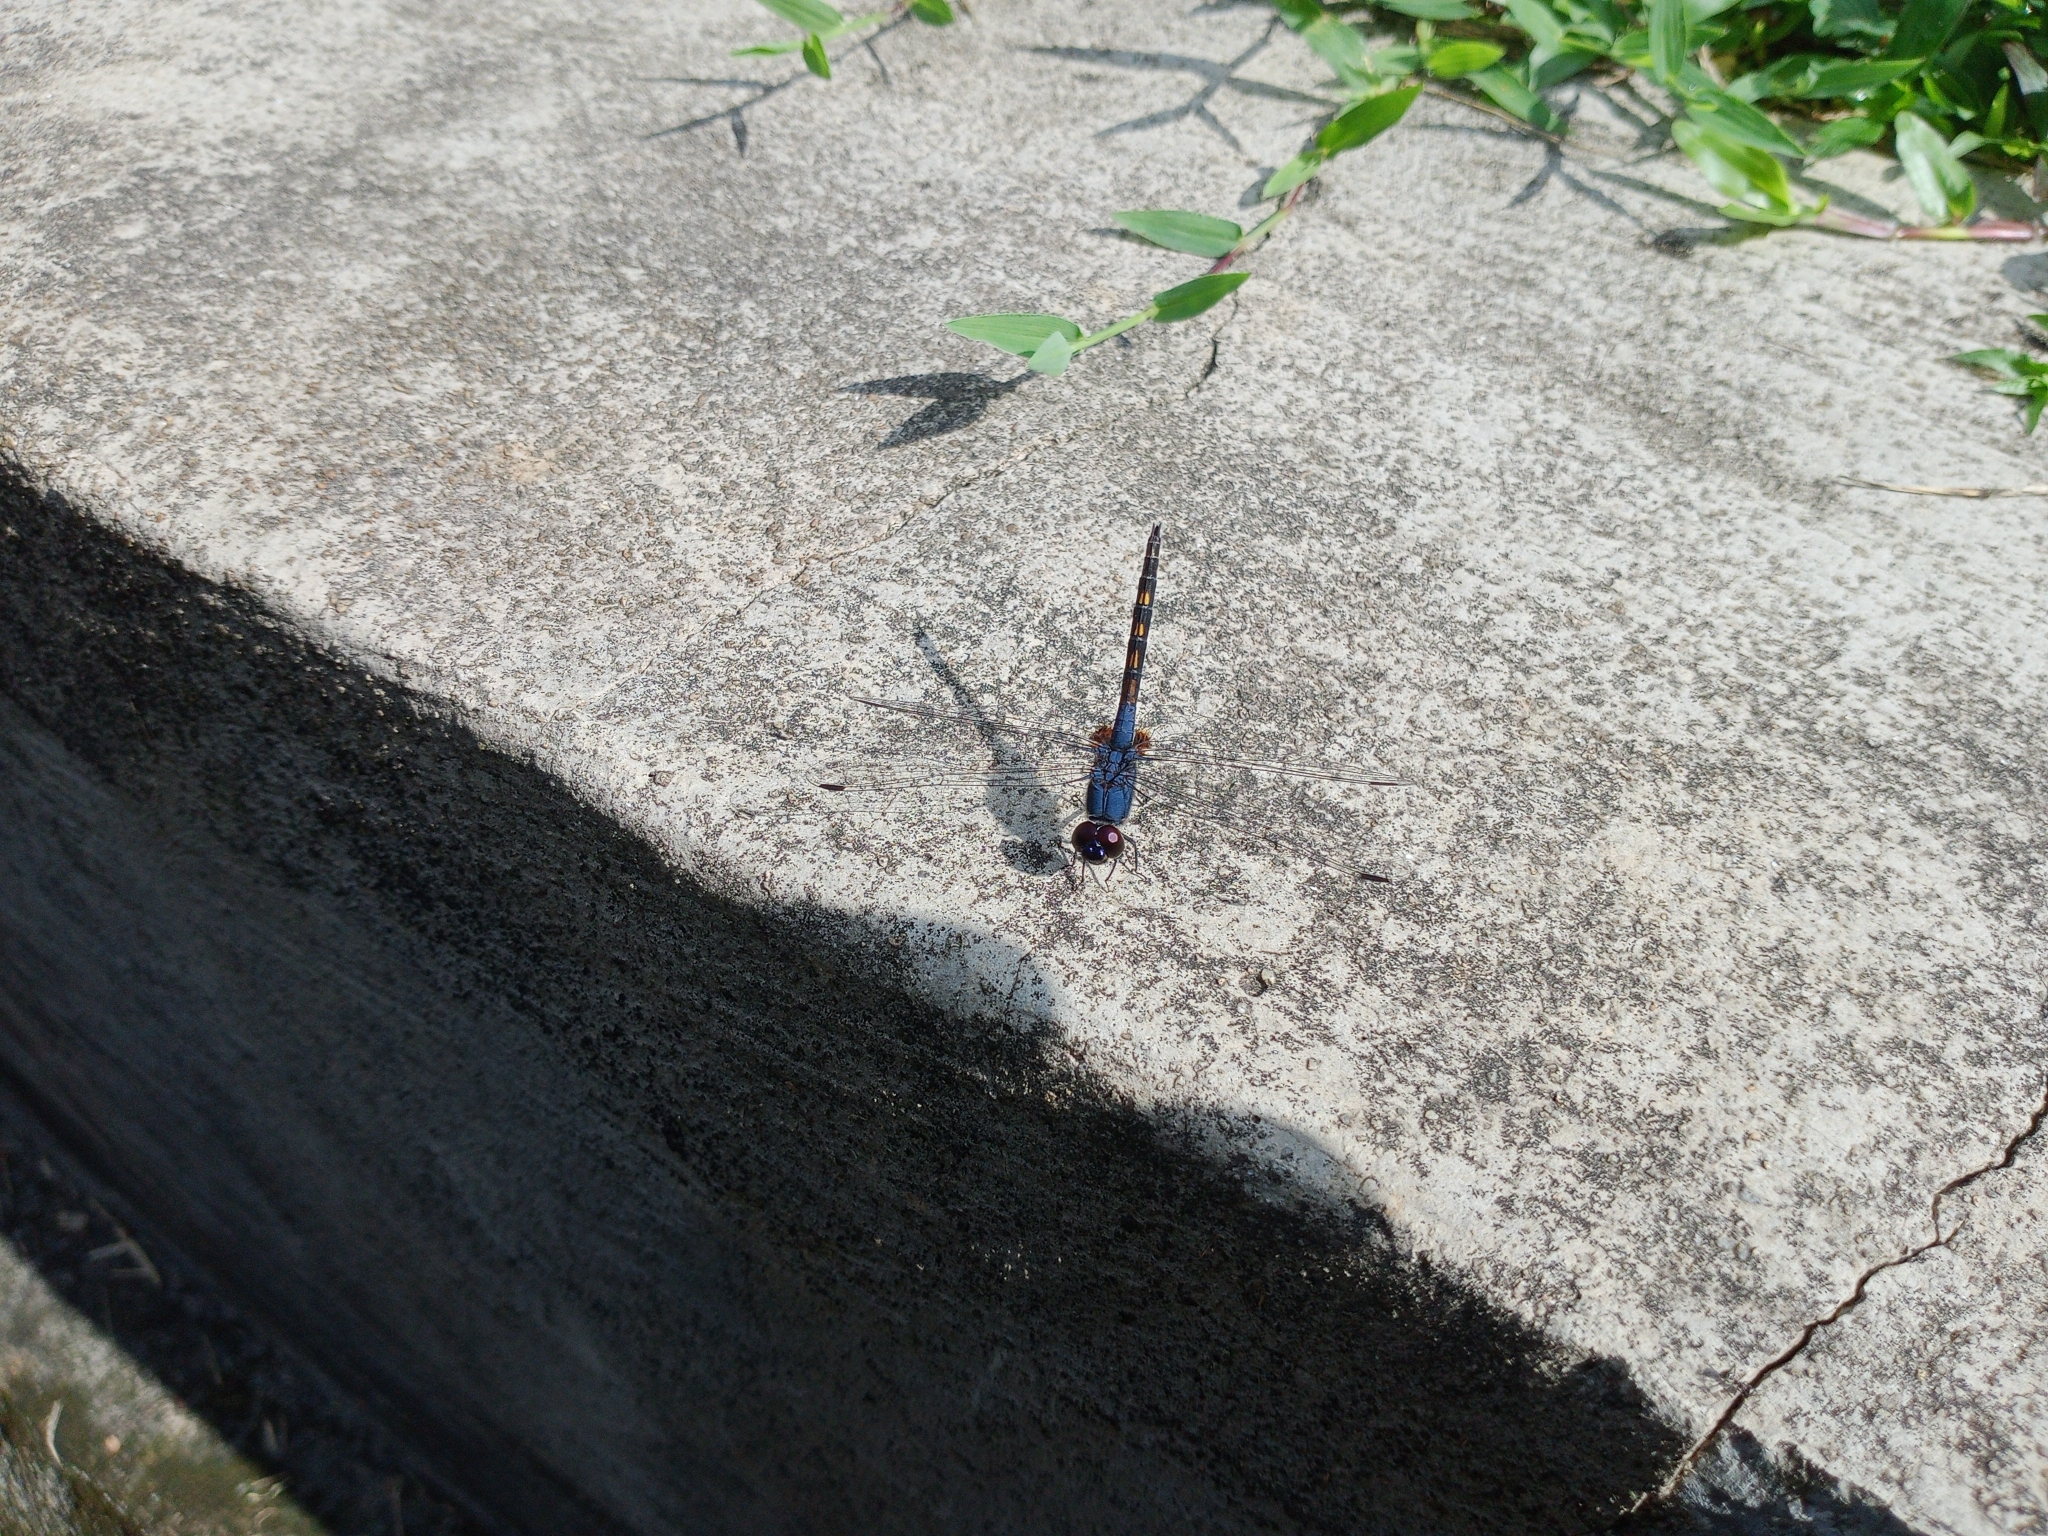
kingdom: Animalia
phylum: Arthropoda
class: Insecta
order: Odonata
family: Libellulidae
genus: Trithemis
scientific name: Trithemis festiva
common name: Indigo dropwing
